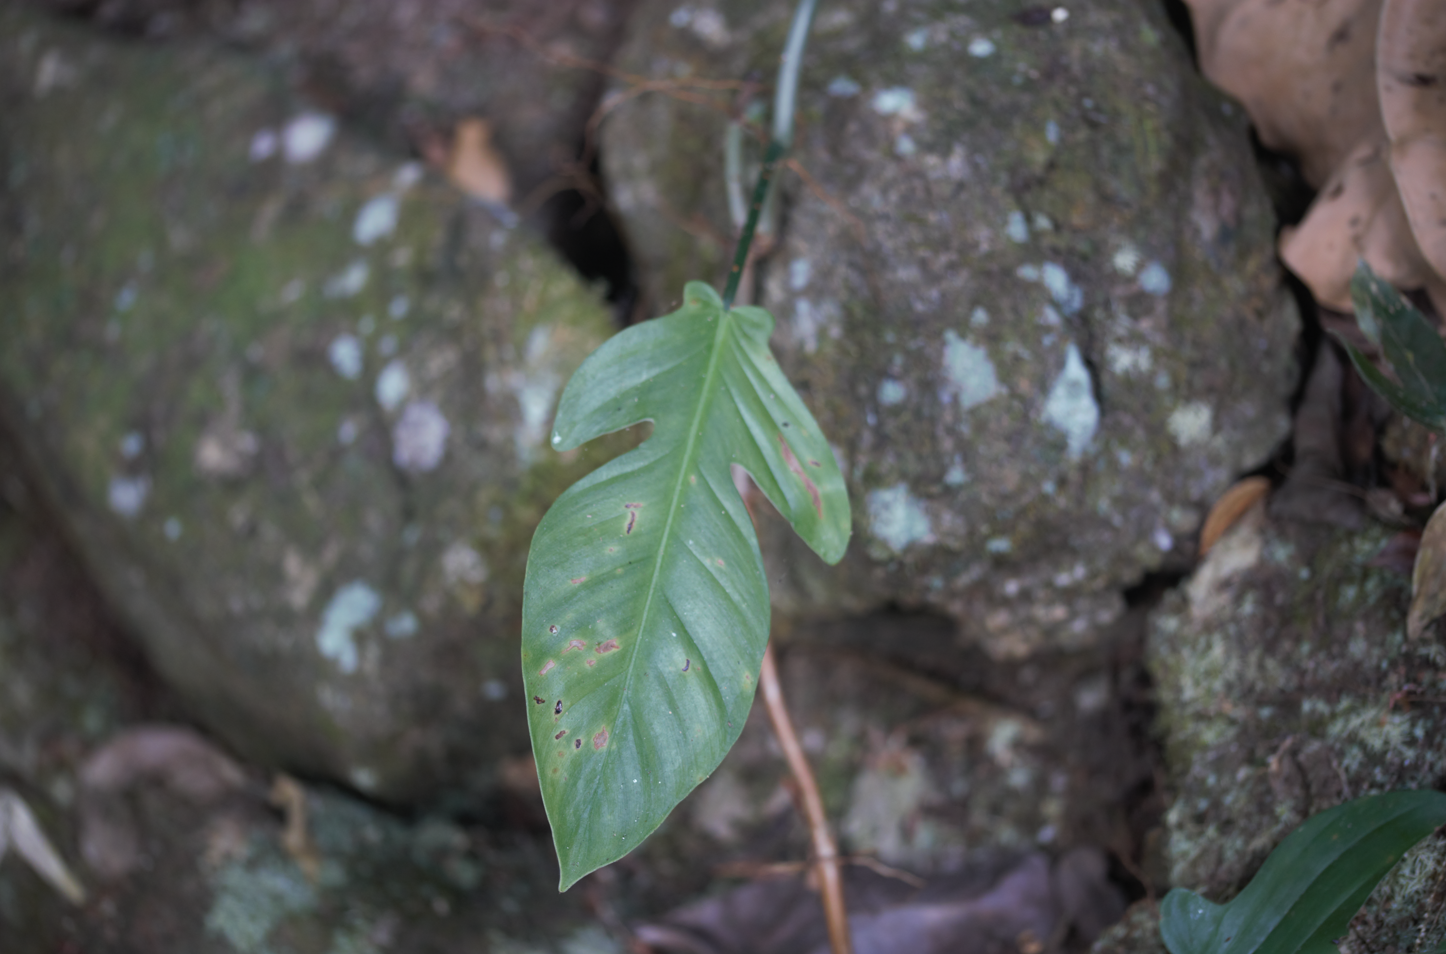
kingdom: Plantae
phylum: Tracheophyta
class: Liliopsida
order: Alismatales
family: Araceae
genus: Philodendron
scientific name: Philodendron pedatum
